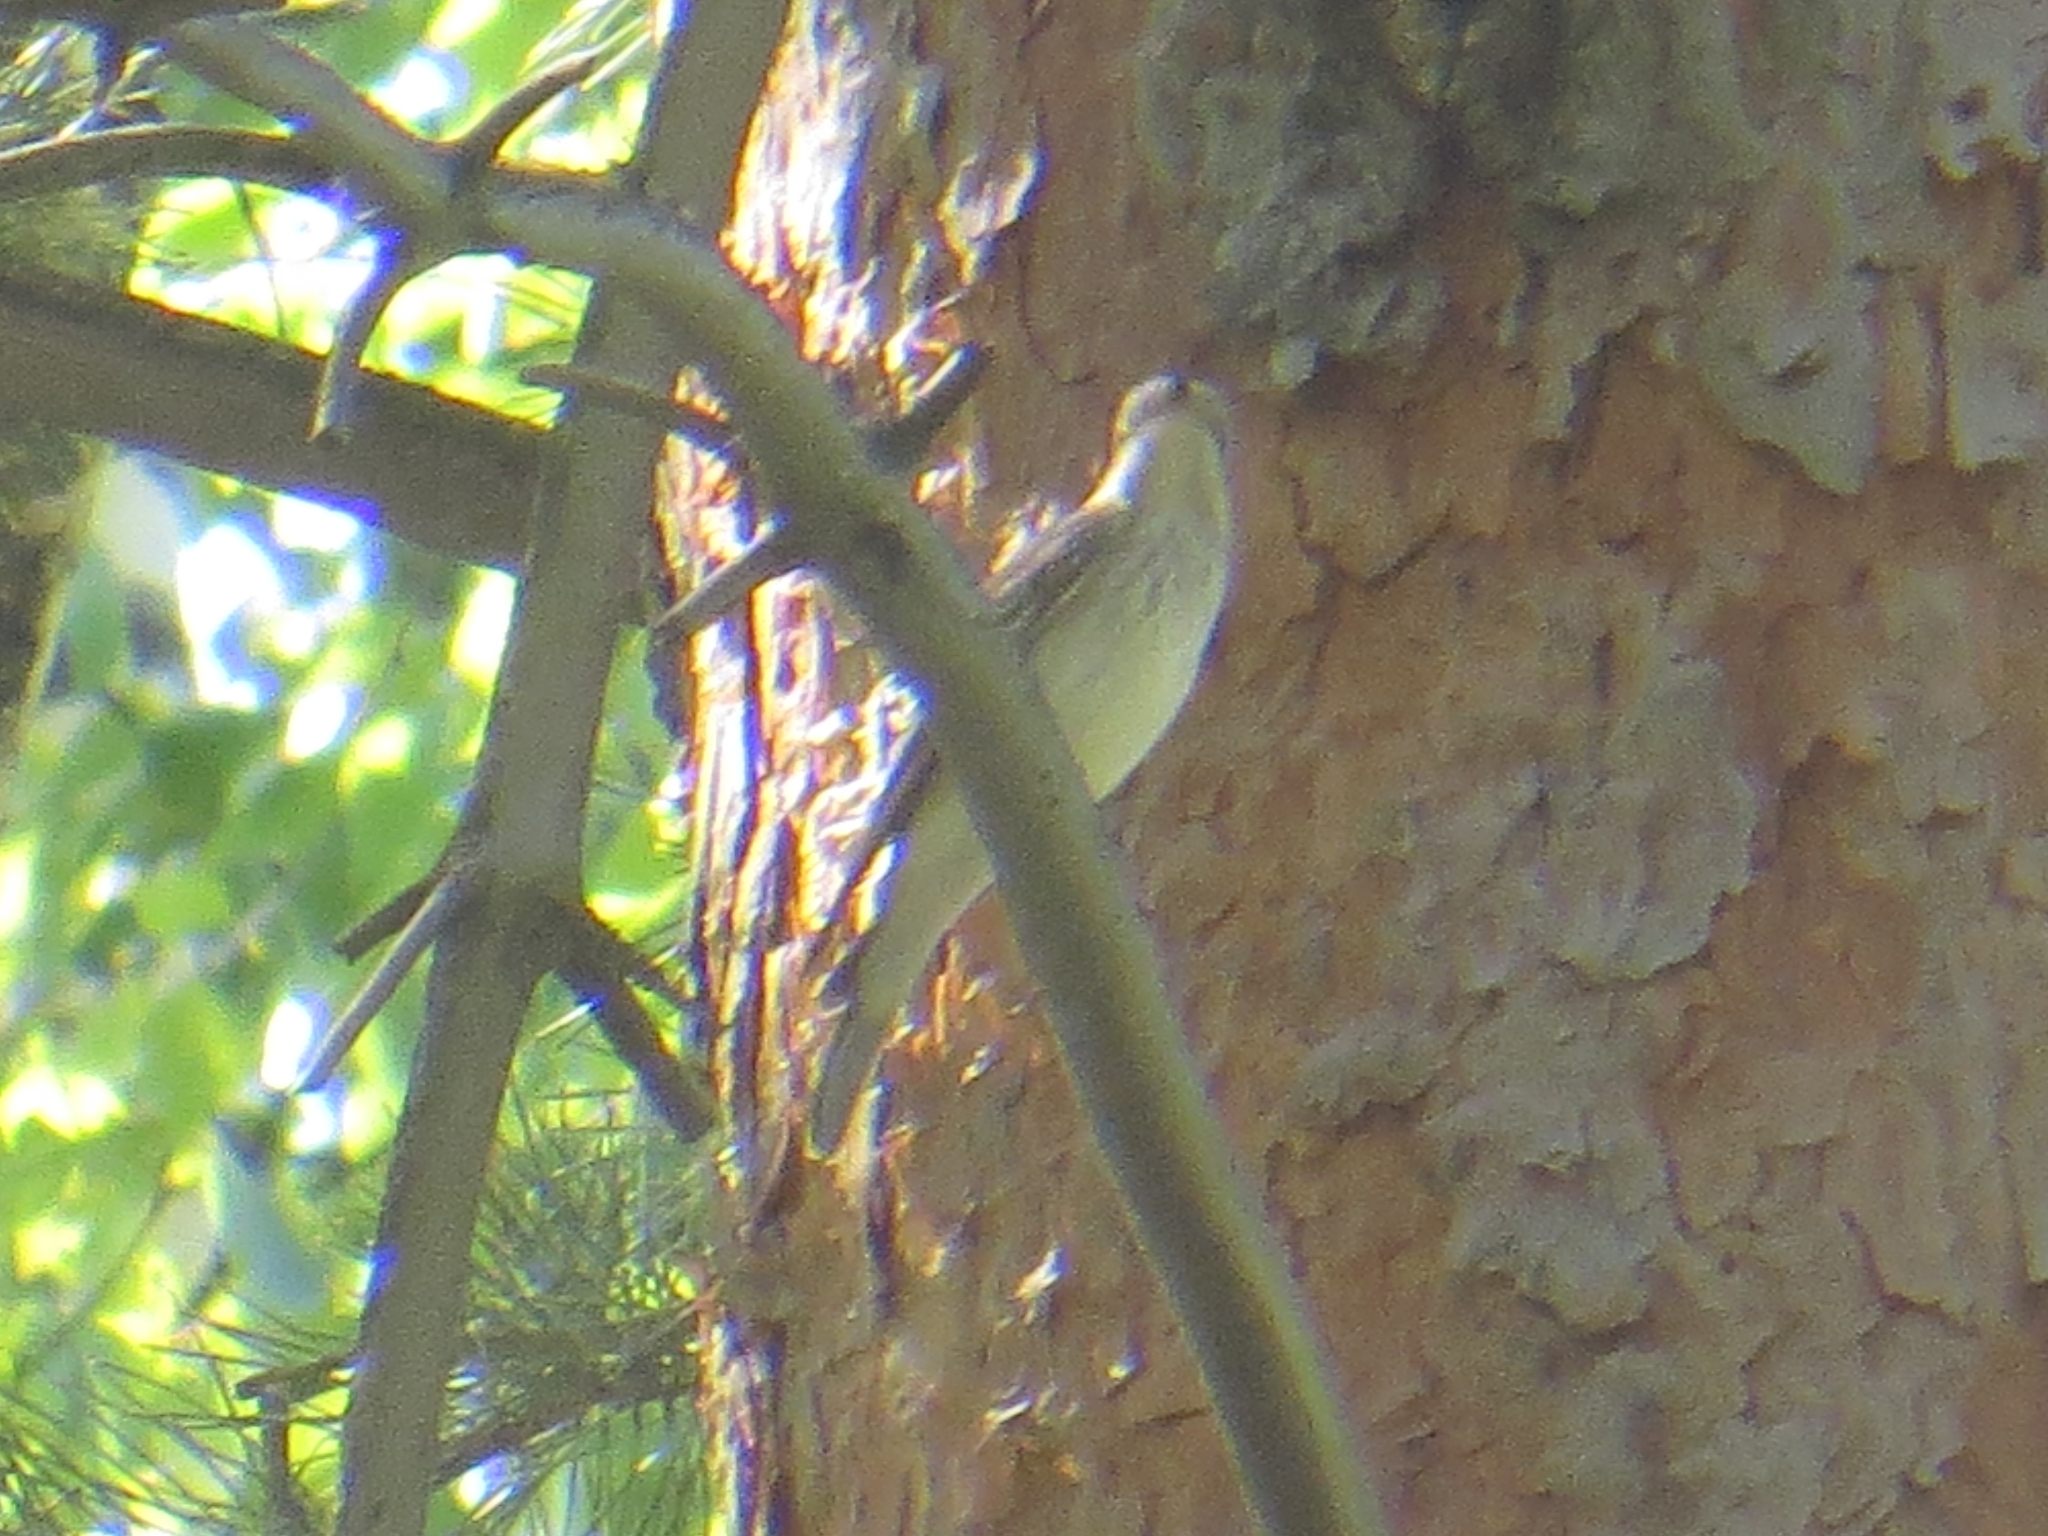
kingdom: Animalia
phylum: Chordata
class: Aves
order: Passeriformes
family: Muscicapidae
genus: Muscicapa
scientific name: Muscicapa striata
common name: Spotted flycatcher
